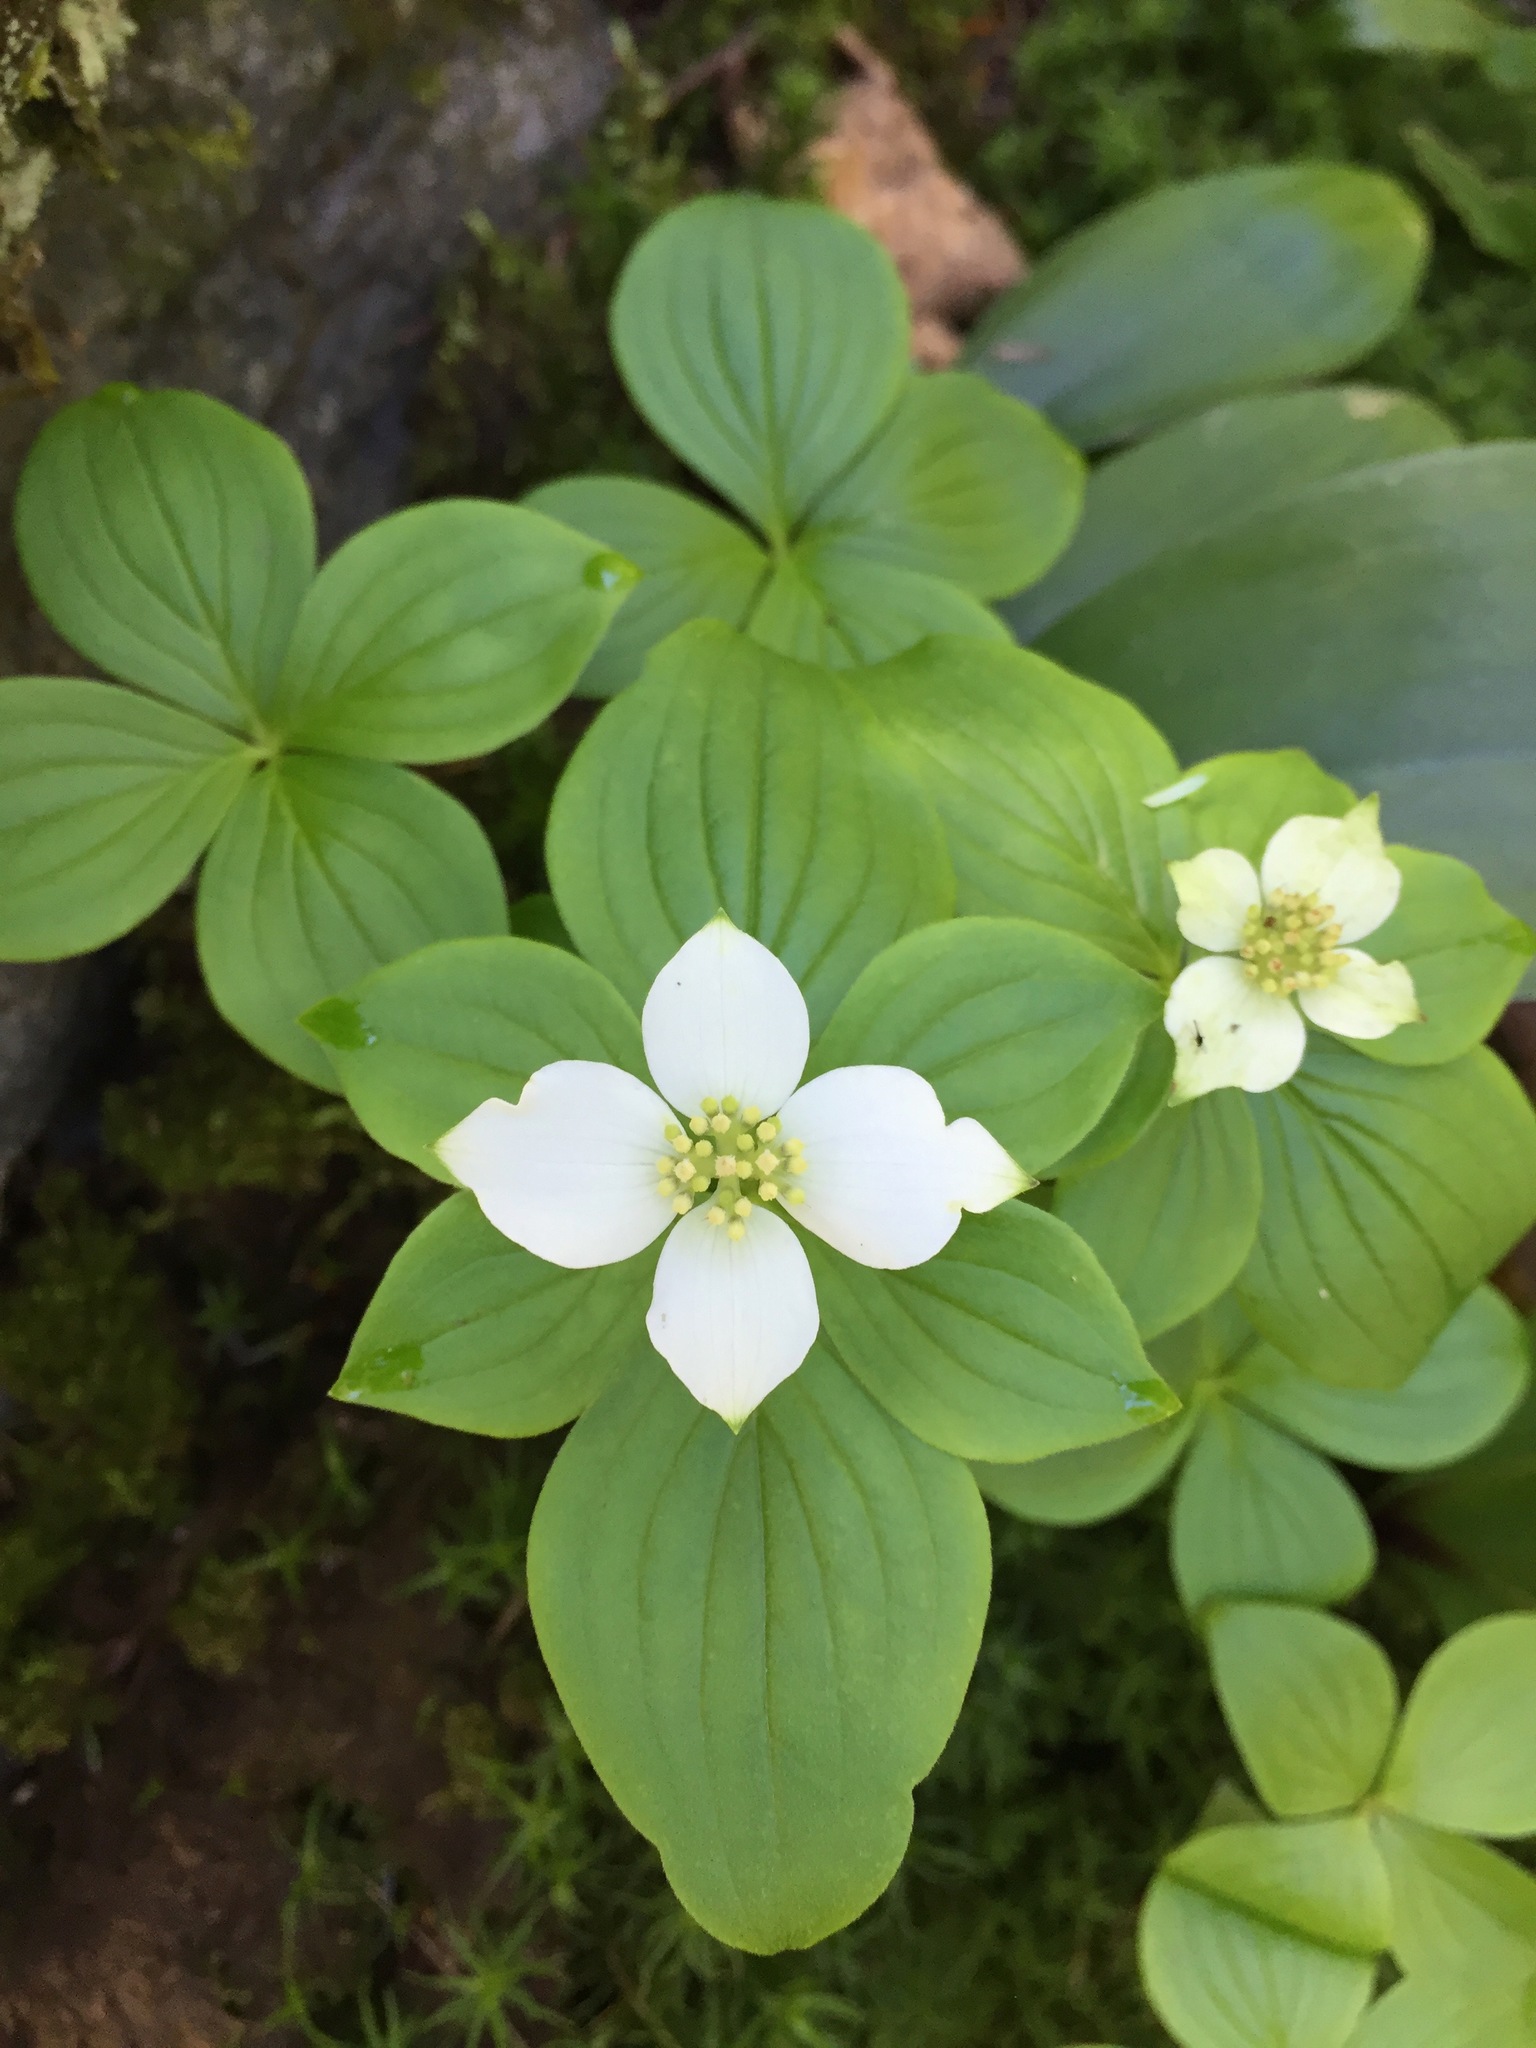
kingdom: Plantae
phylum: Tracheophyta
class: Magnoliopsida
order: Cornales
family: Cornaceae
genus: Cornus
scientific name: Cornus canadensis
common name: Creeping dogwood
